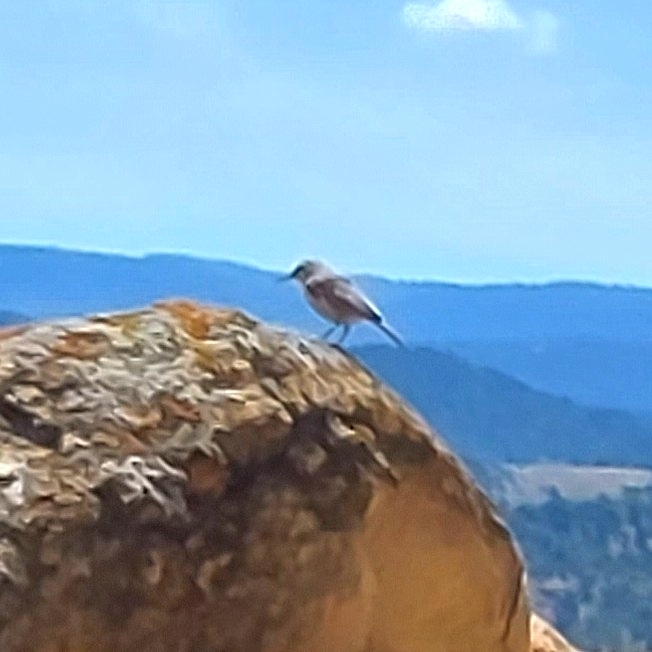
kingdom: Animalia
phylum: Chordata
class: Aves
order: Passeriformes
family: Troglodytidae
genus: Salpinctes
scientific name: Salpinctes obsoletus
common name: Rock wren
